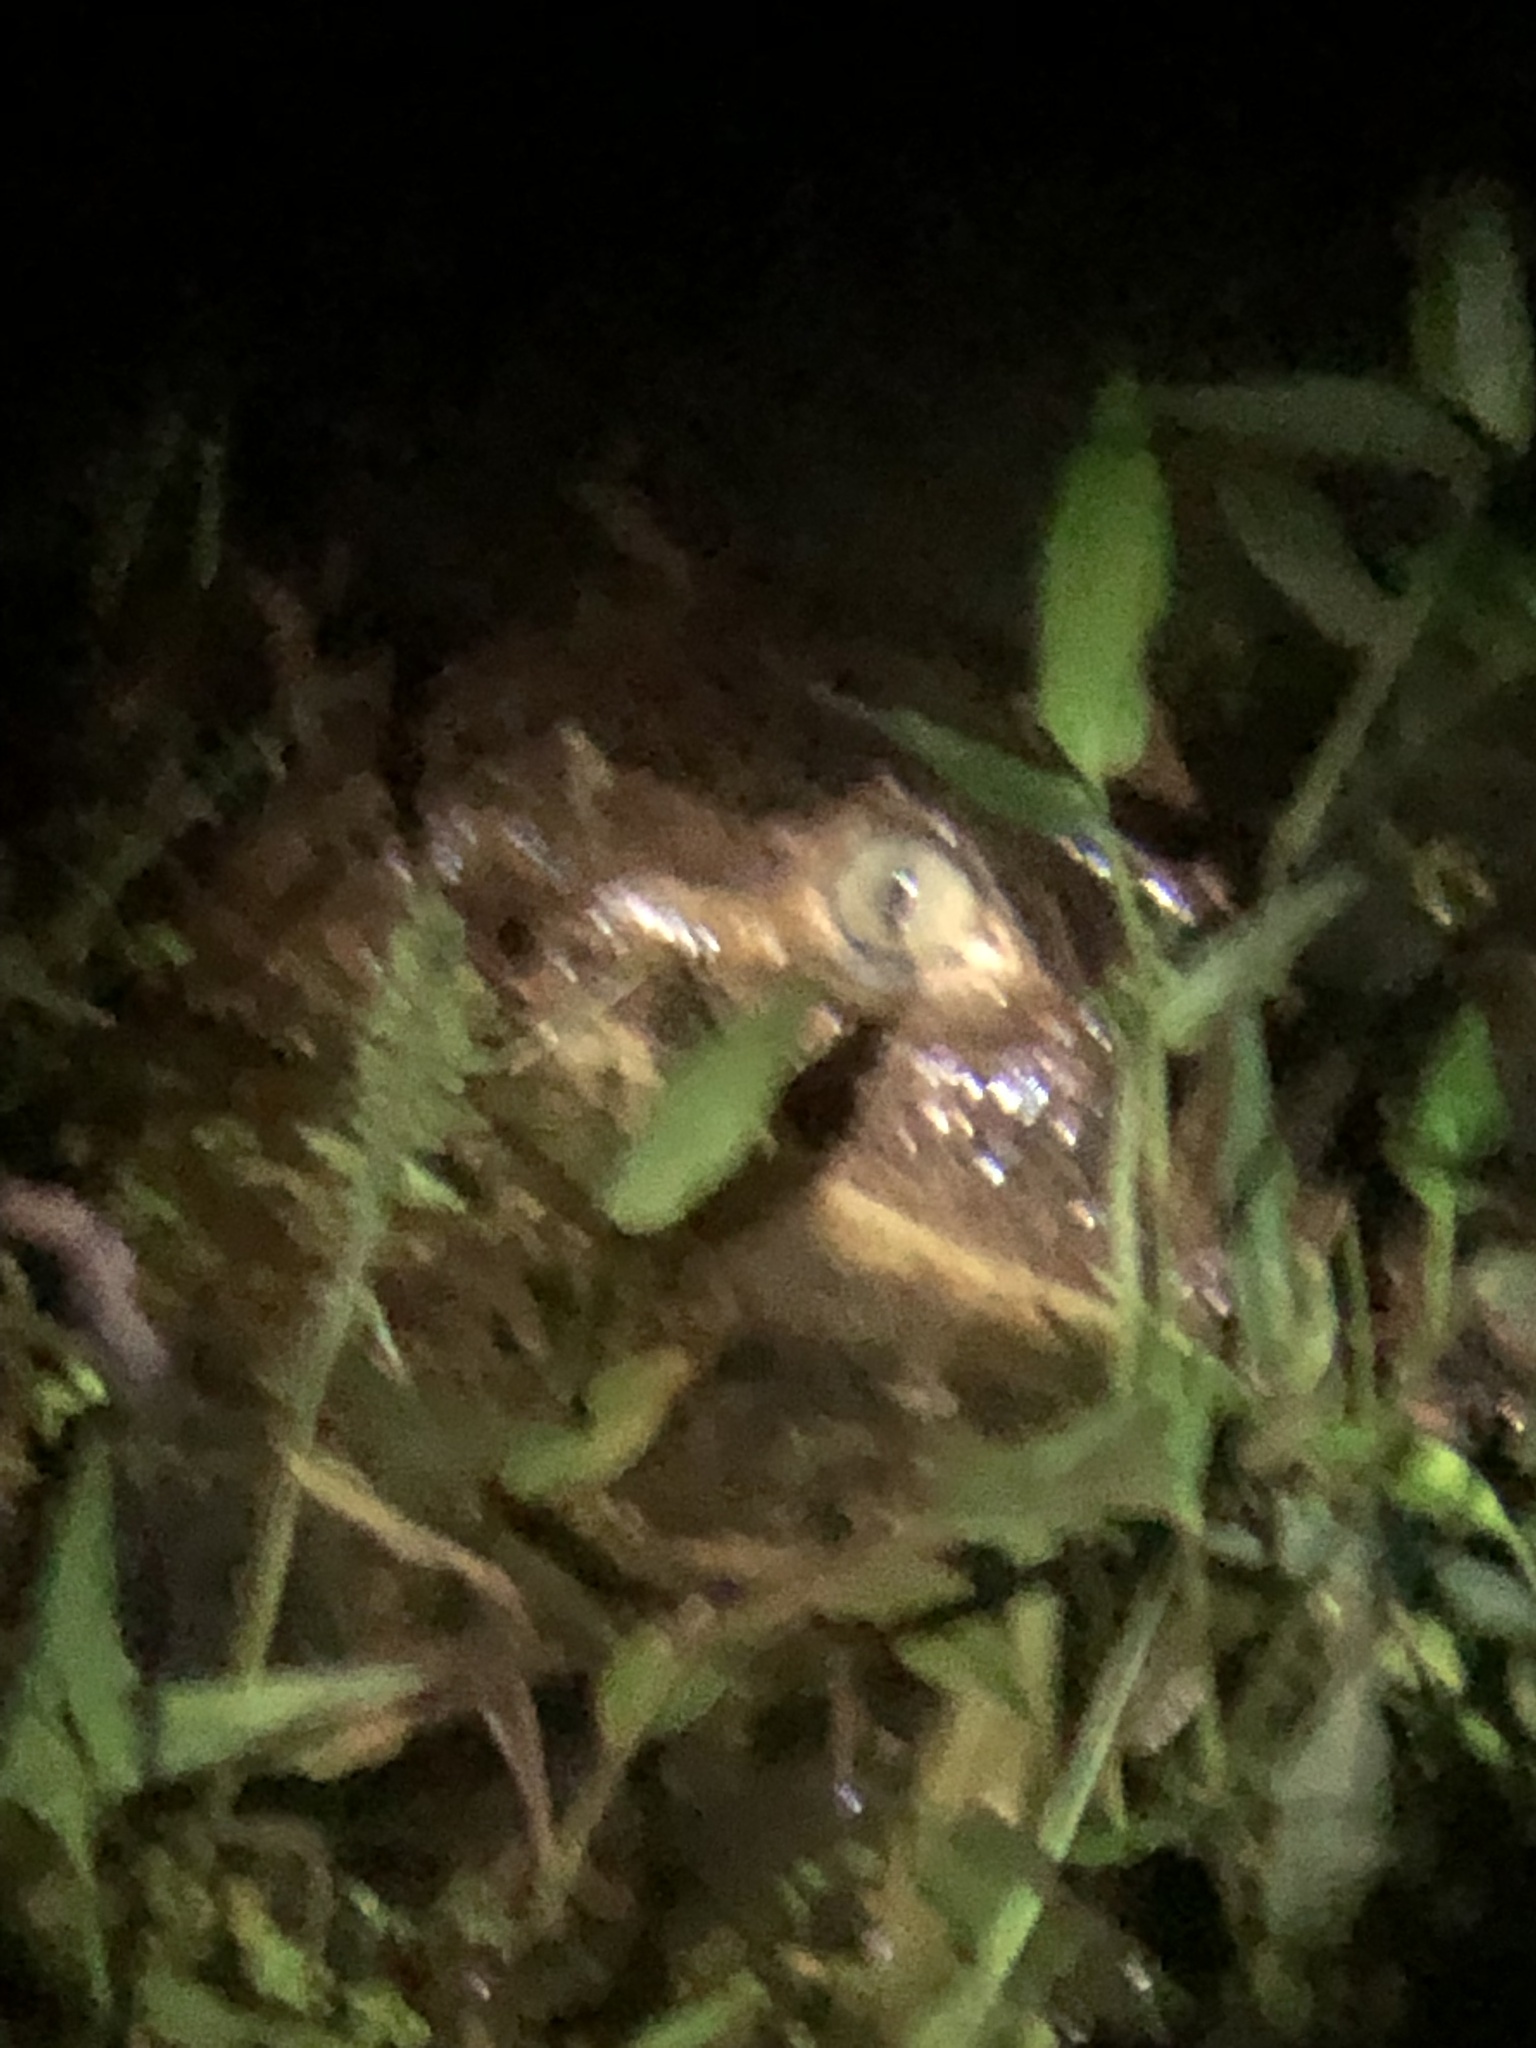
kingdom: Animalia
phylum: Chordata
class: Crocodylia
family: Alligatoridae
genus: Caiman
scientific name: Caiman crocodilus
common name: Common caiman
